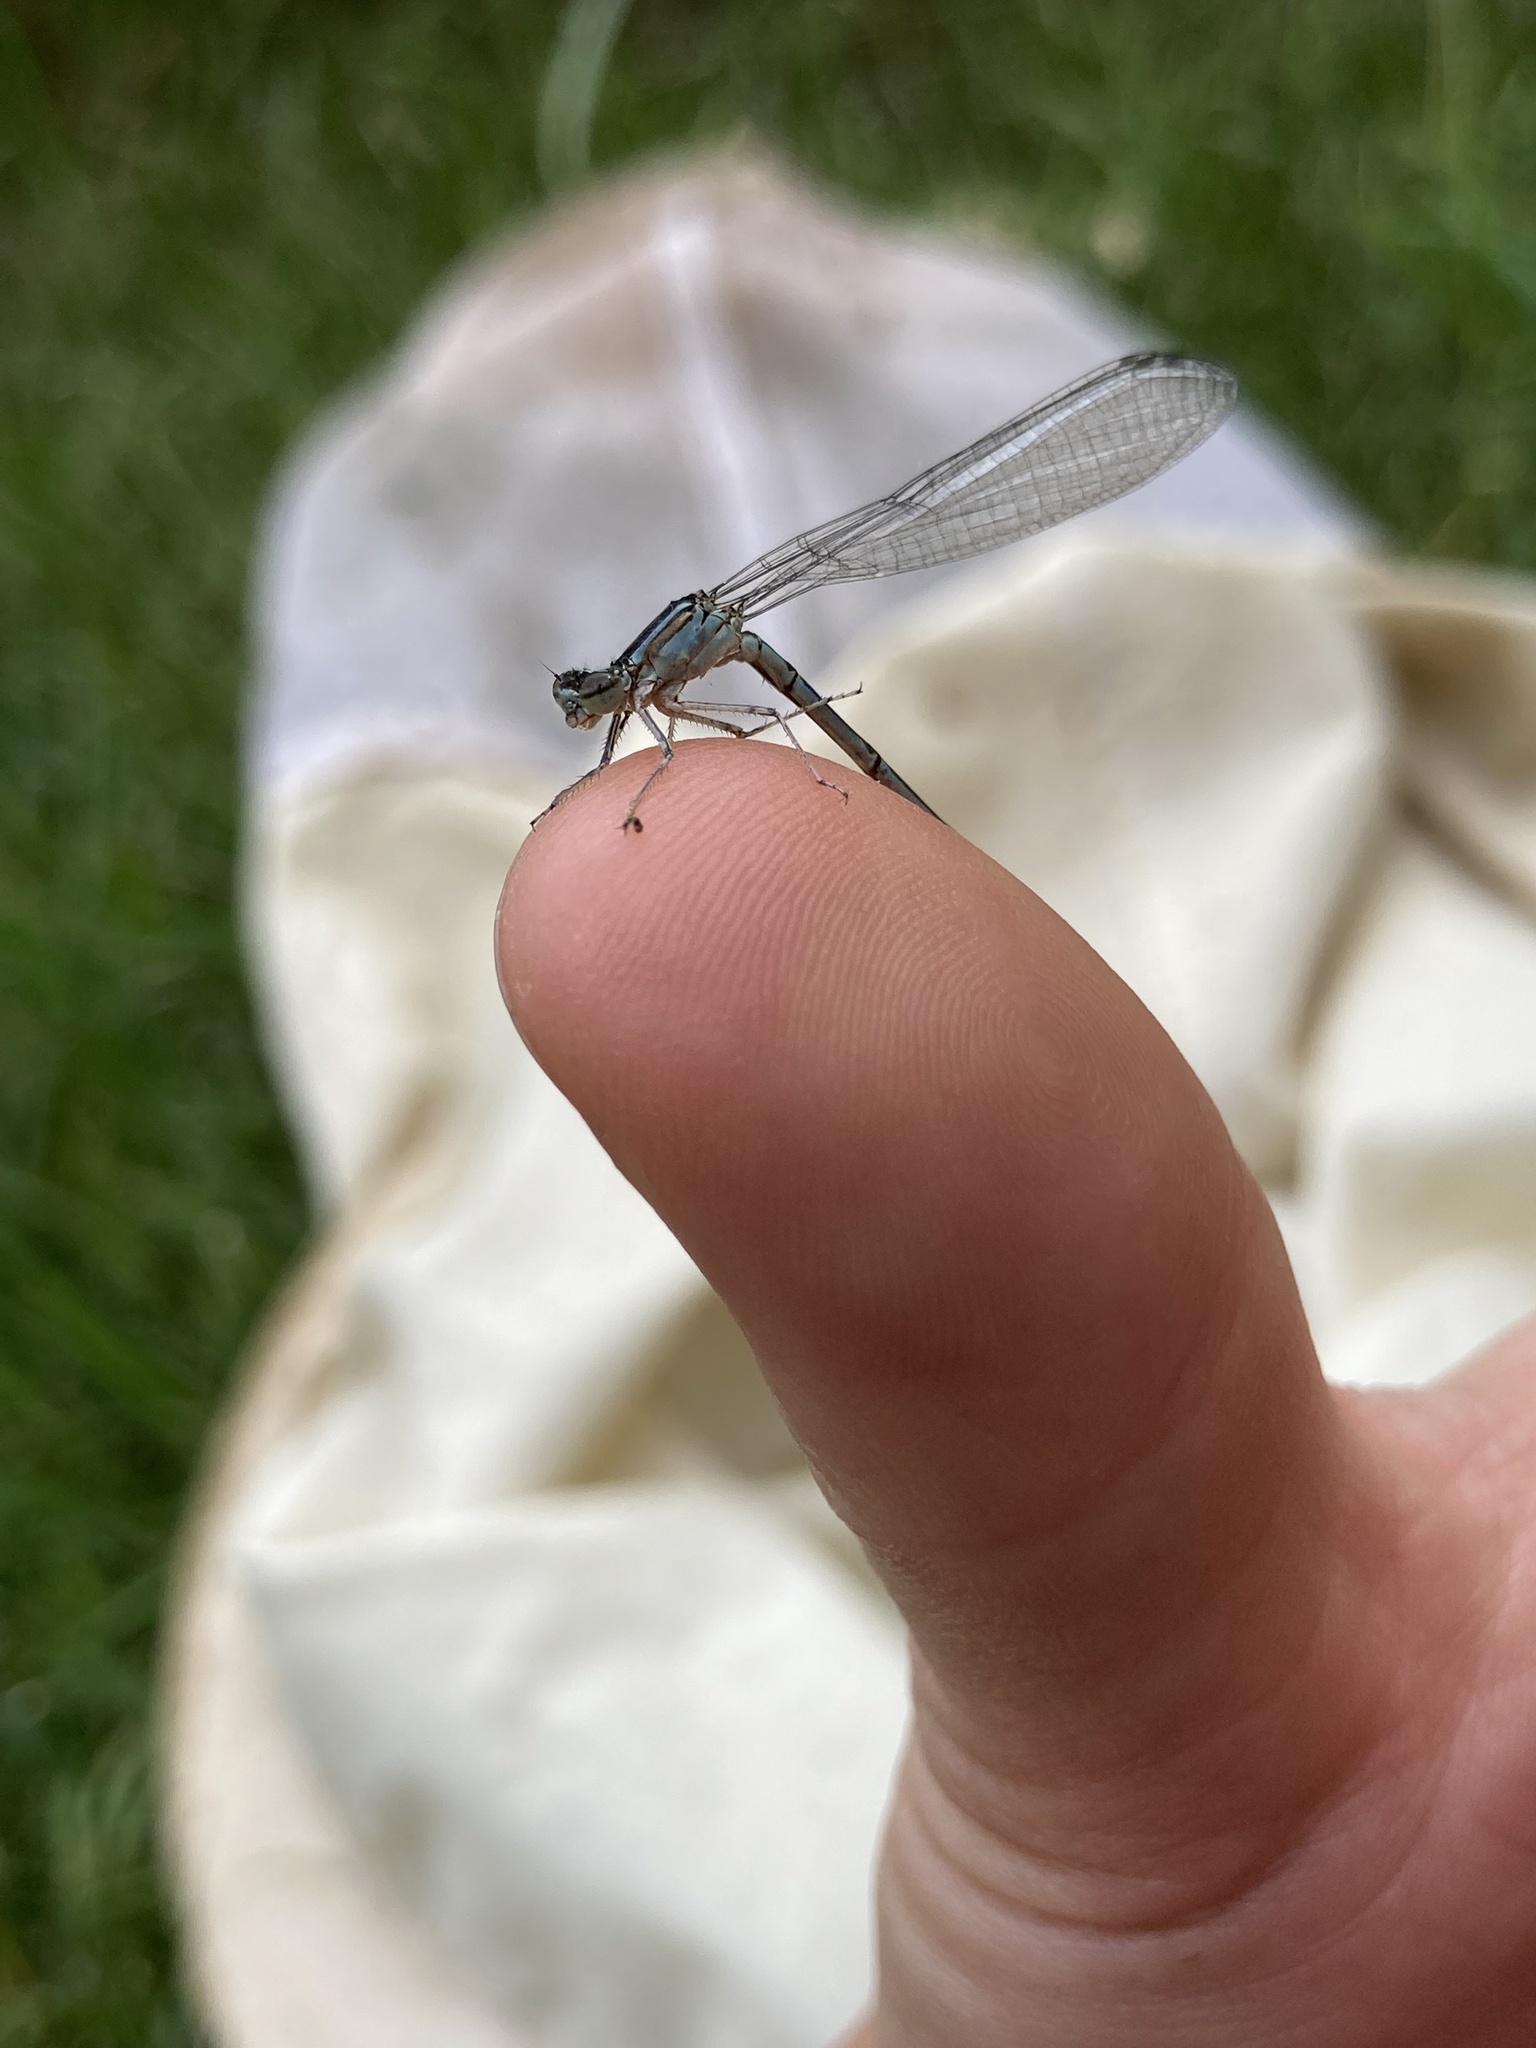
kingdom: Animalia
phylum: Arthropoda
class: Insecta
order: Odonata
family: Coenagrionidae
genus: Enallagma
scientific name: Enallagma exsulans
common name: Stream bluet
